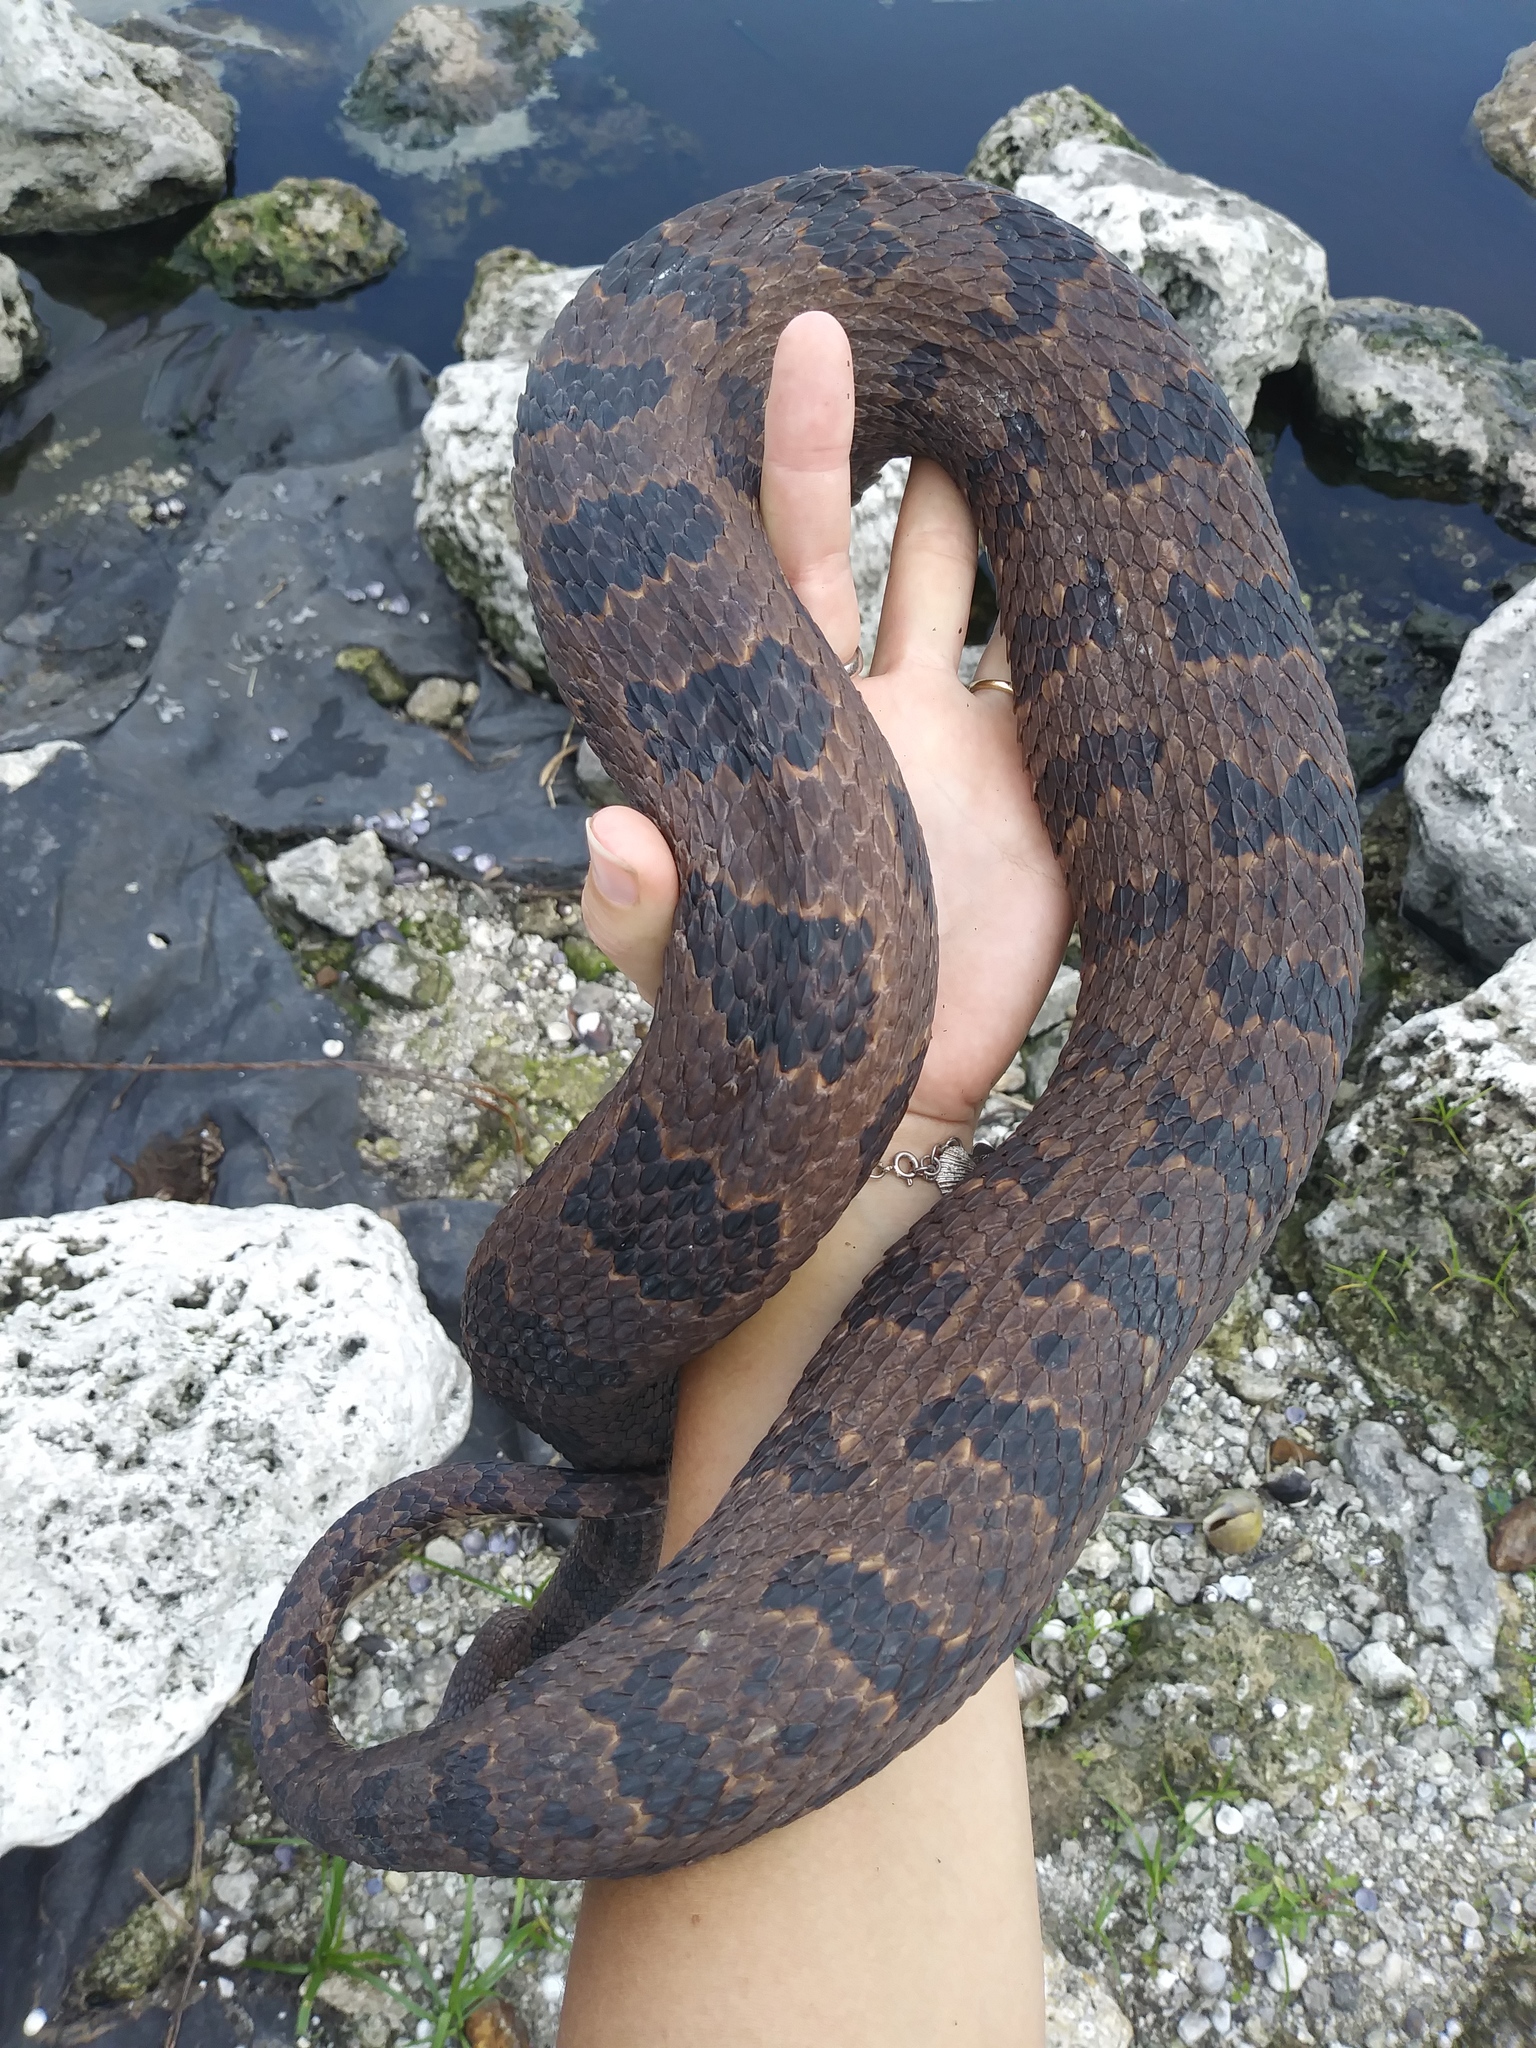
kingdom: Animalia
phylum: Chordata
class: Squamata
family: Colubridae
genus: Nerodia
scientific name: Nerodia taxispilota
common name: Brown water snake
